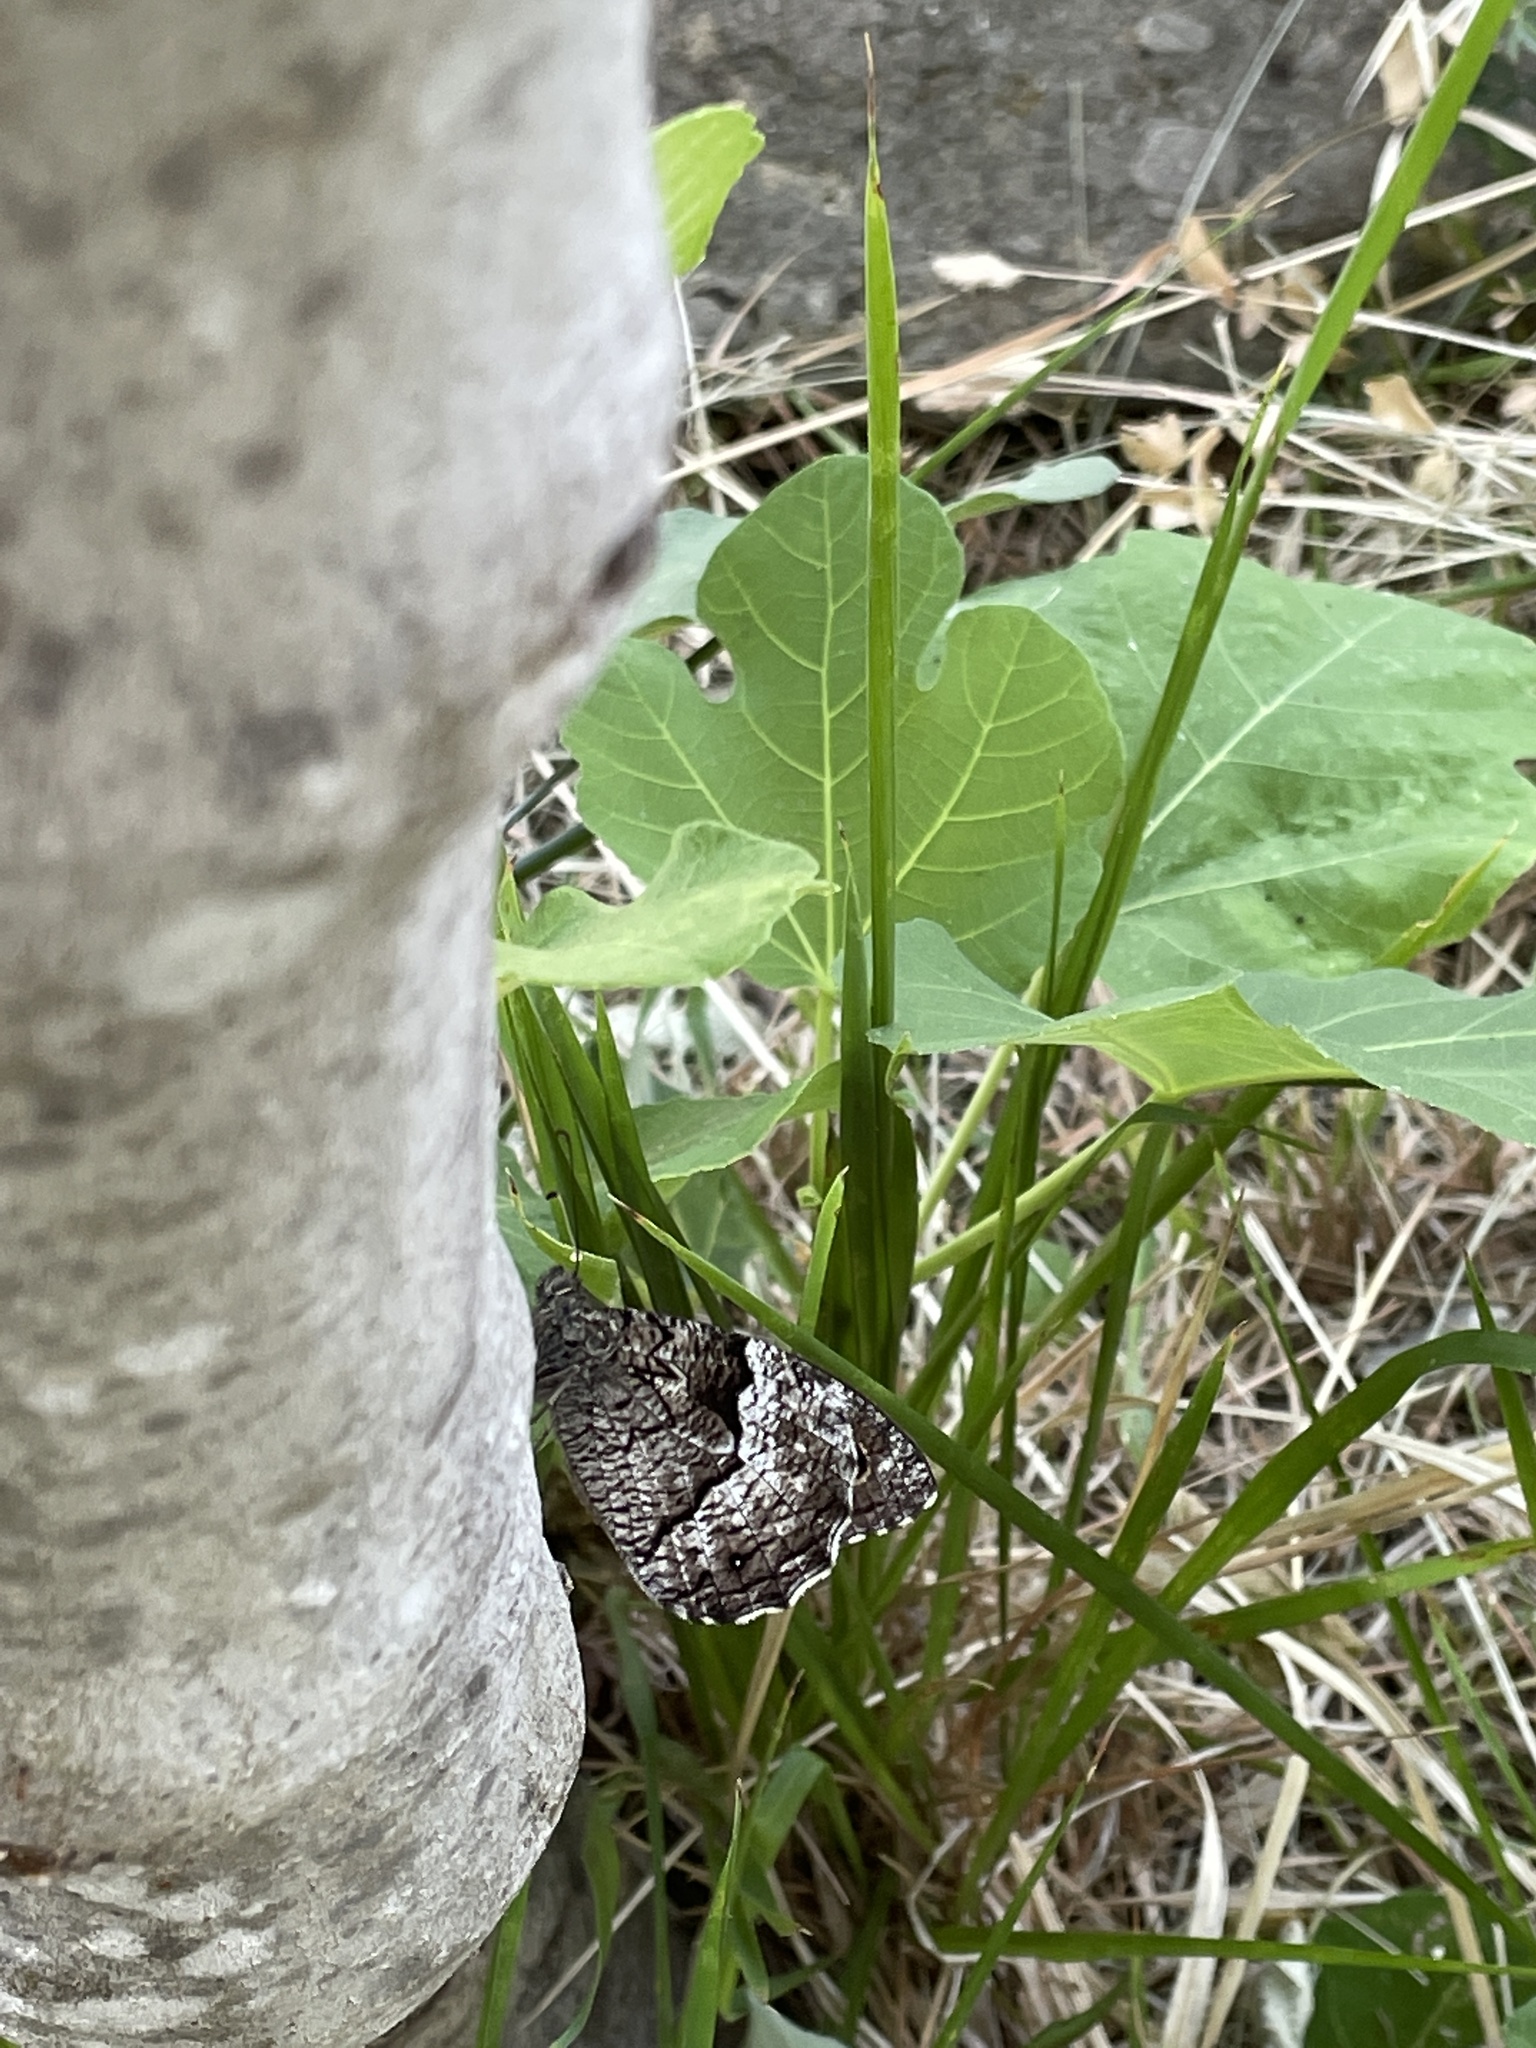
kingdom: Animalia
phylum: Arthropoda
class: Insecta
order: Lepidoptera
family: Nymphalidae
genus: Hipparchia
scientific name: Hipparchia syriaca
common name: Eastern rock grayling
